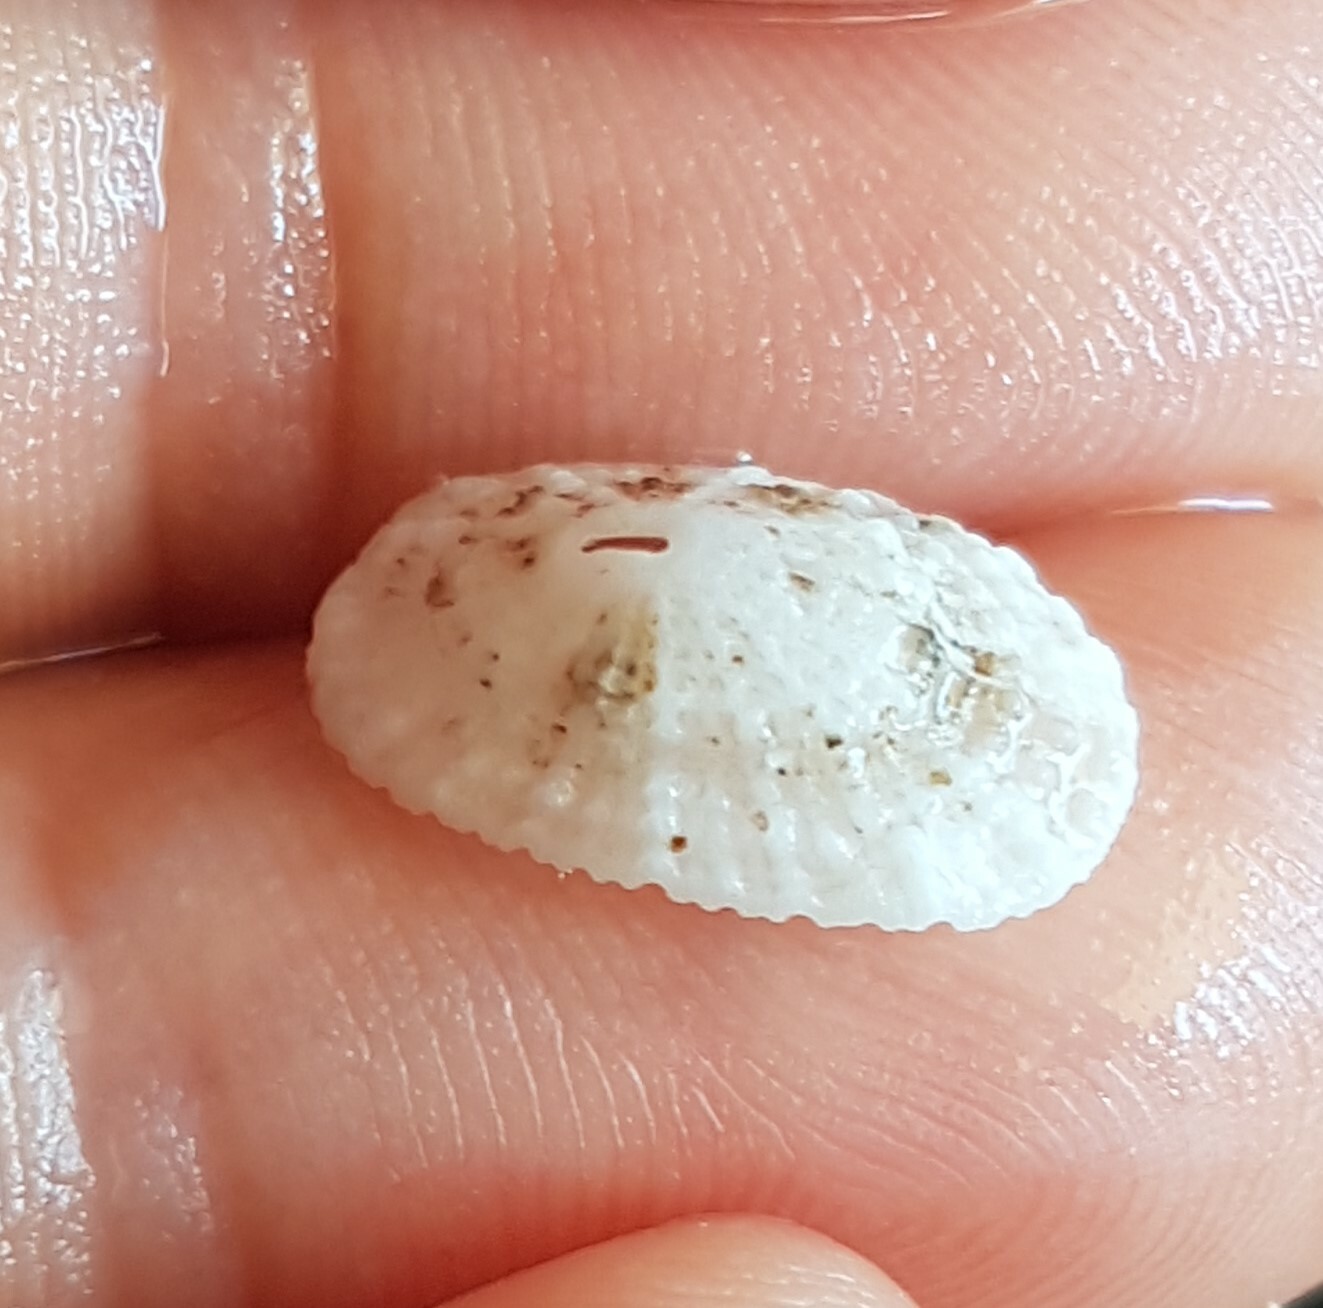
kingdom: Animalia
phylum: Mollusca
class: Gastropoda
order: Lepetellida
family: Fissurellidae
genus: Diodora
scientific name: Diodora graeca
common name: Common keyhole limpet
